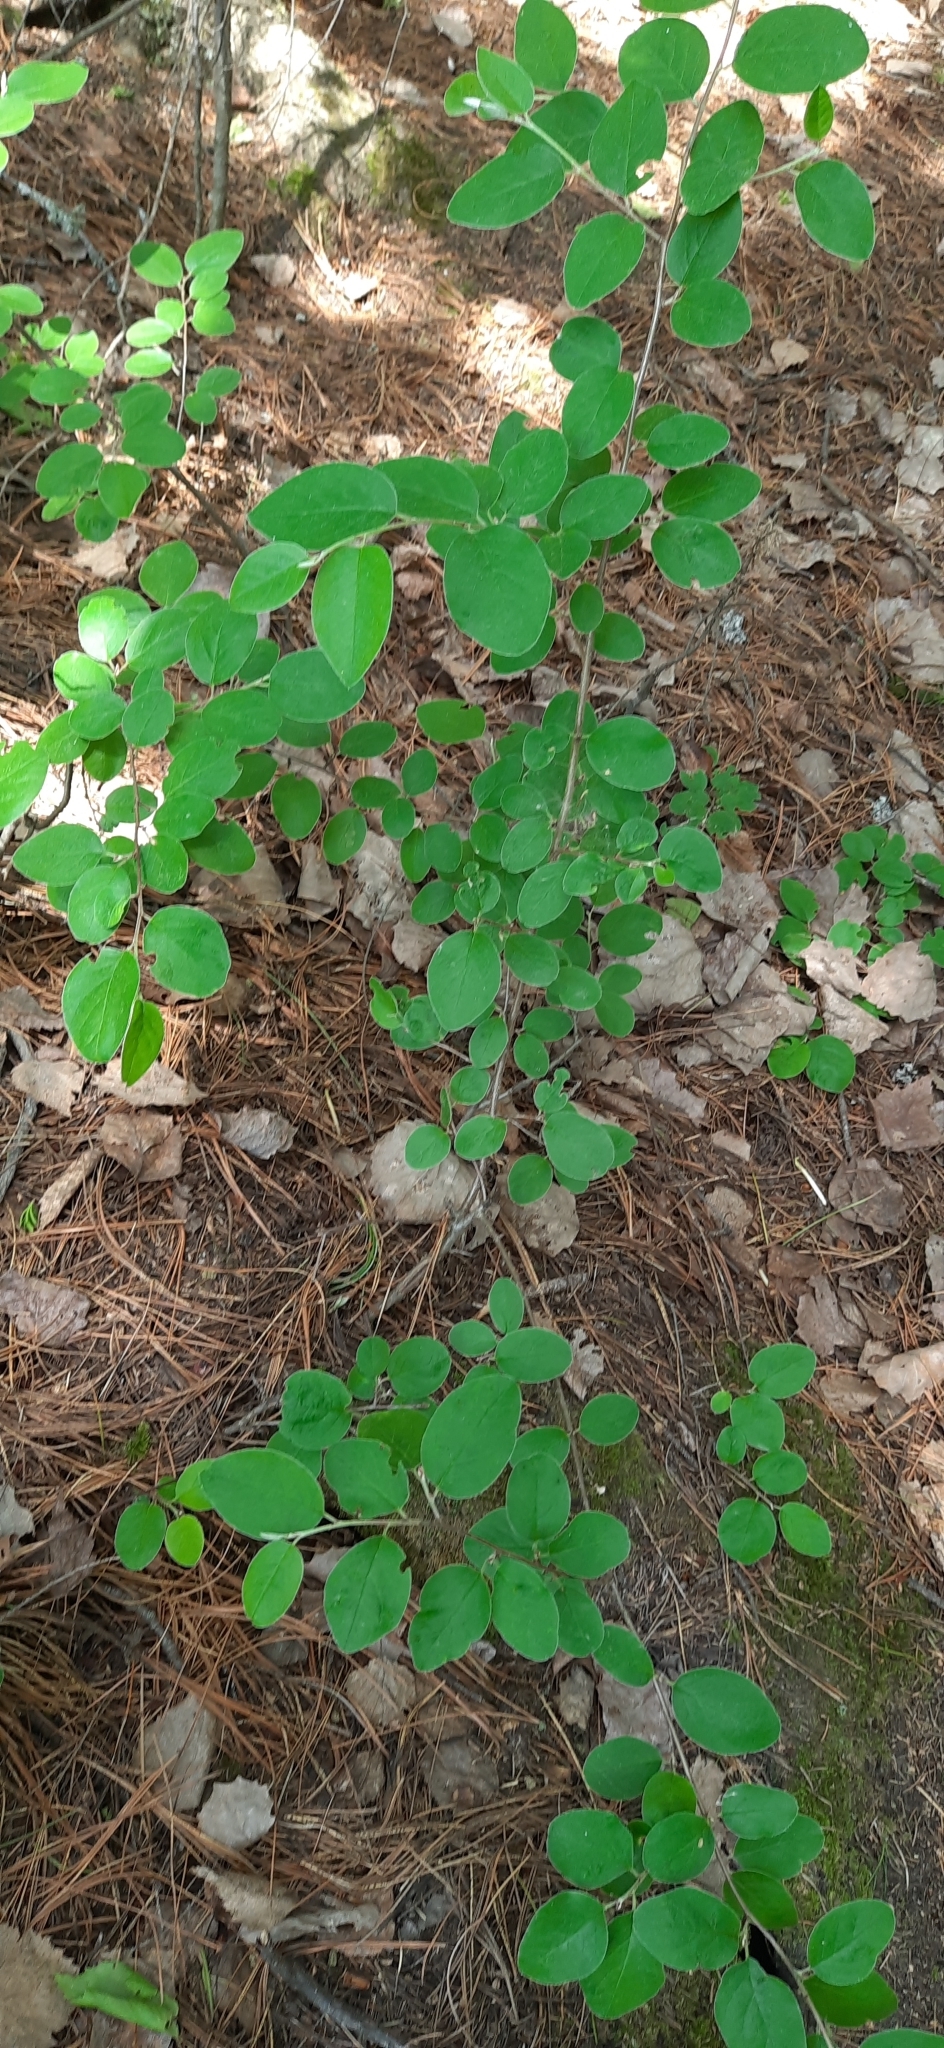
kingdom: Plantae
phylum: Tracheophyta
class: Magnoliopsida
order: Rosales
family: Rosaceae
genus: Cotoneaster
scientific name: Cotoneaster melanocarpus
